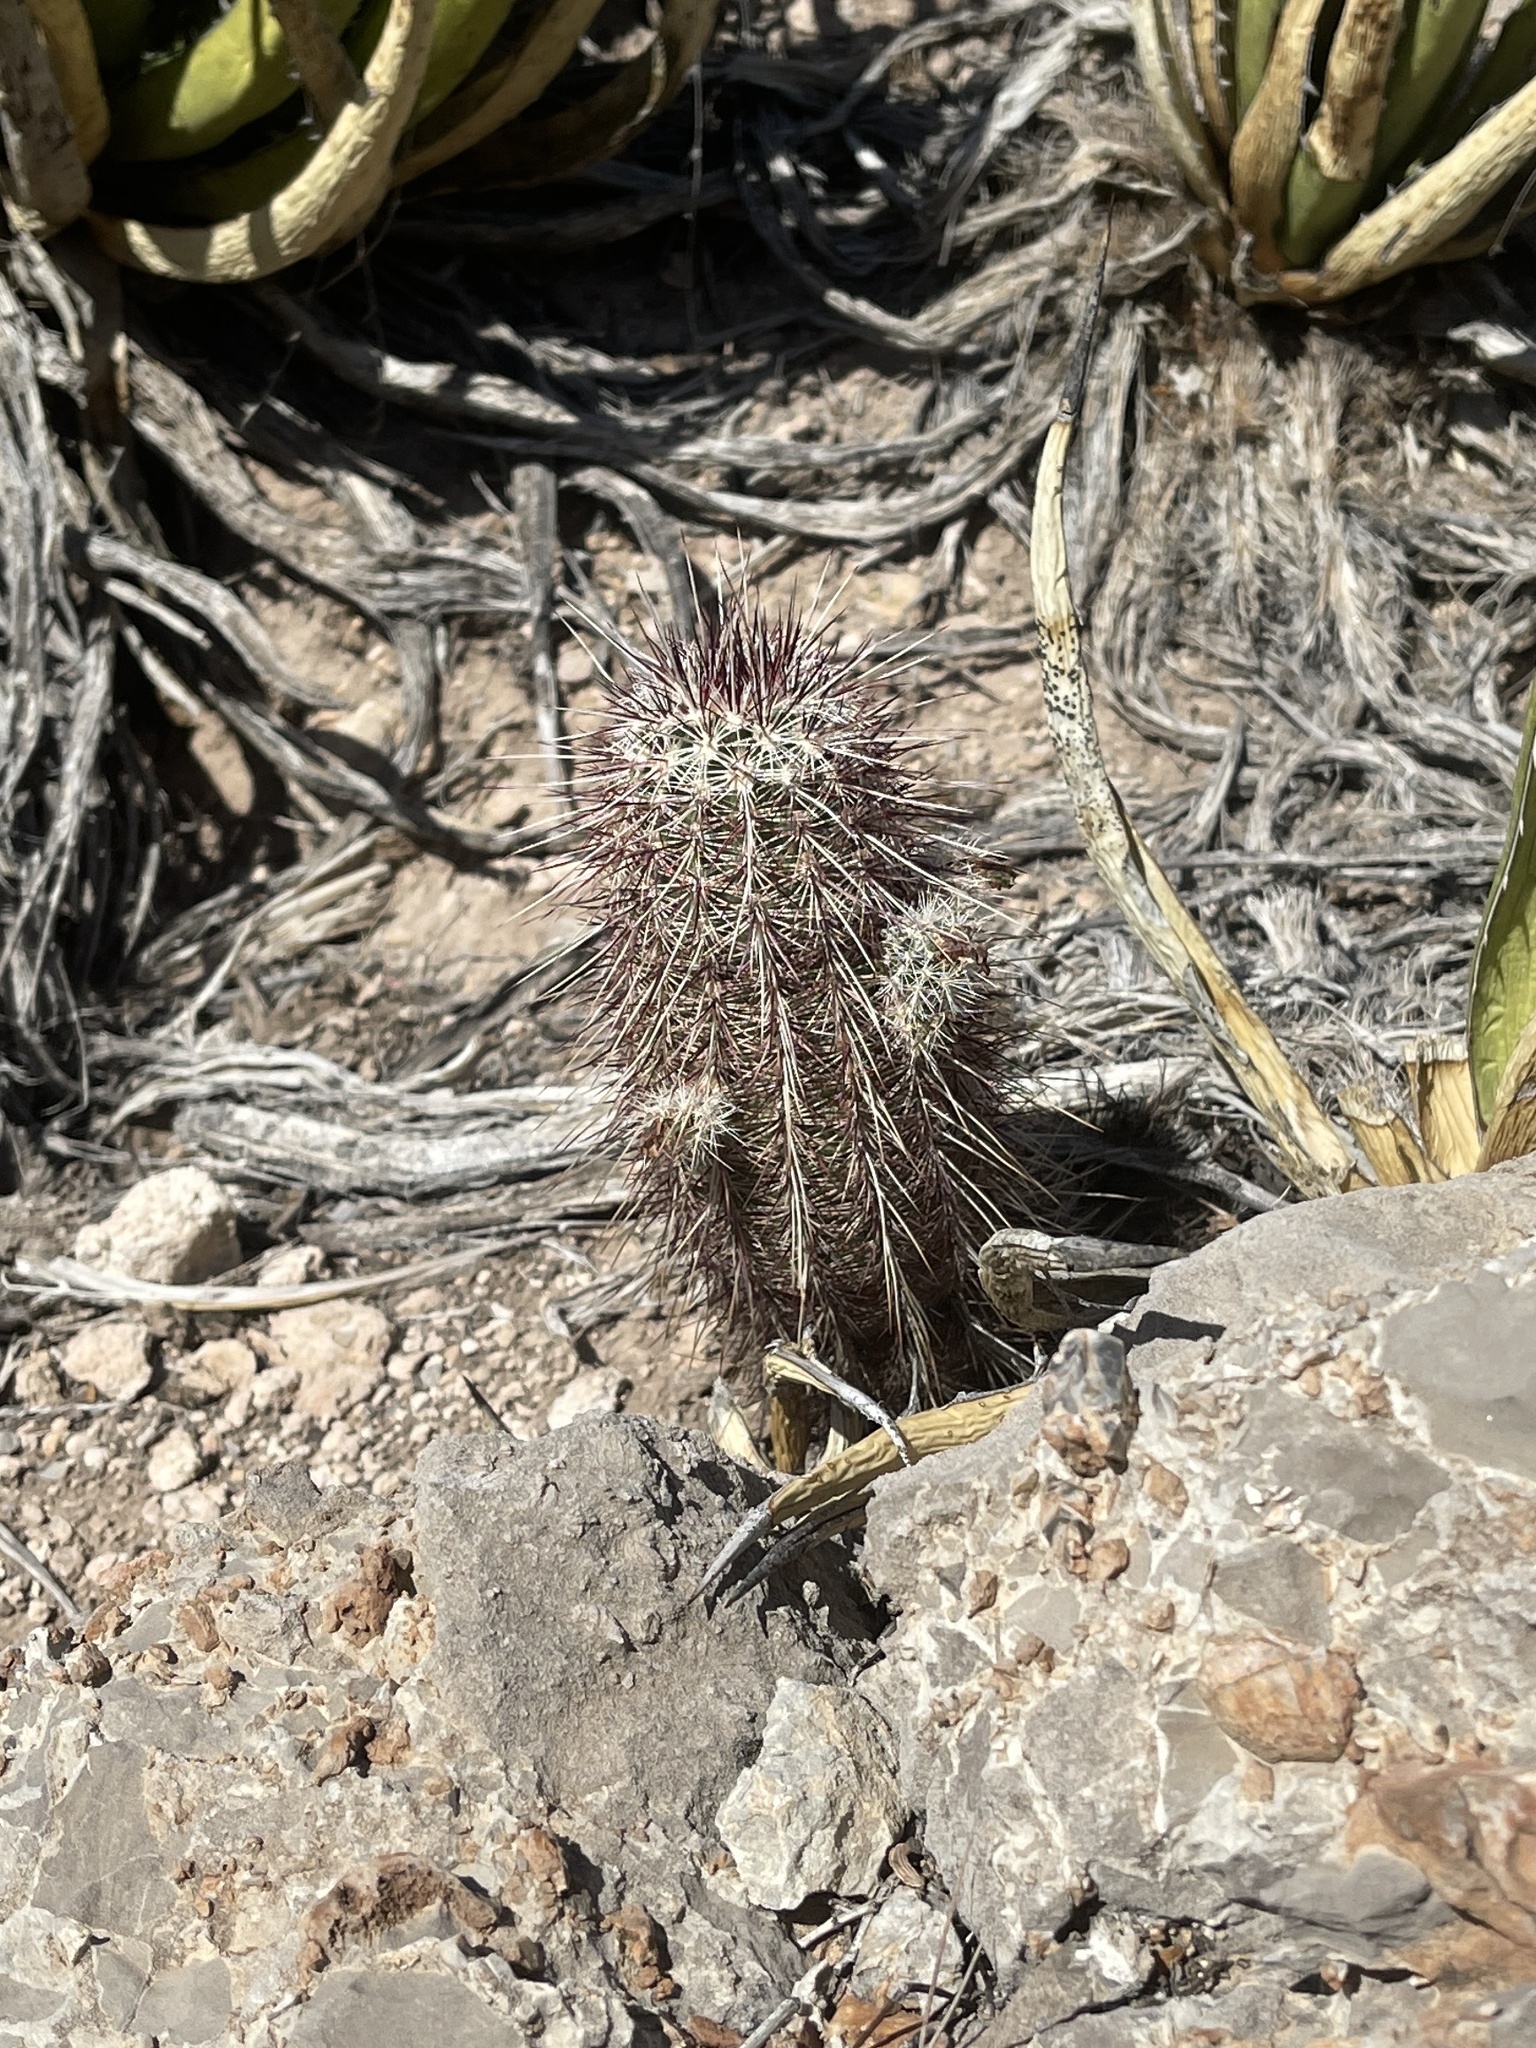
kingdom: Plantae
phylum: Tracheophyta
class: Magnoliopsida
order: Caryophyllales
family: Cactaceae
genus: Echinocereus
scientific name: Echinocereus viridiflorus
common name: Nylon hedgehog cactus
